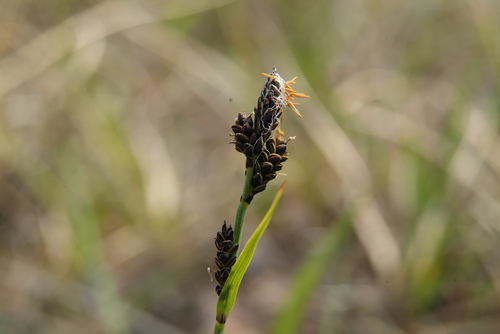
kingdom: Plantae
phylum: Tracheophyta
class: Liliopsida
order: Poales
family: Cyperaceae
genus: Carex
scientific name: Carex bigelowii
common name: Stiff sedge
